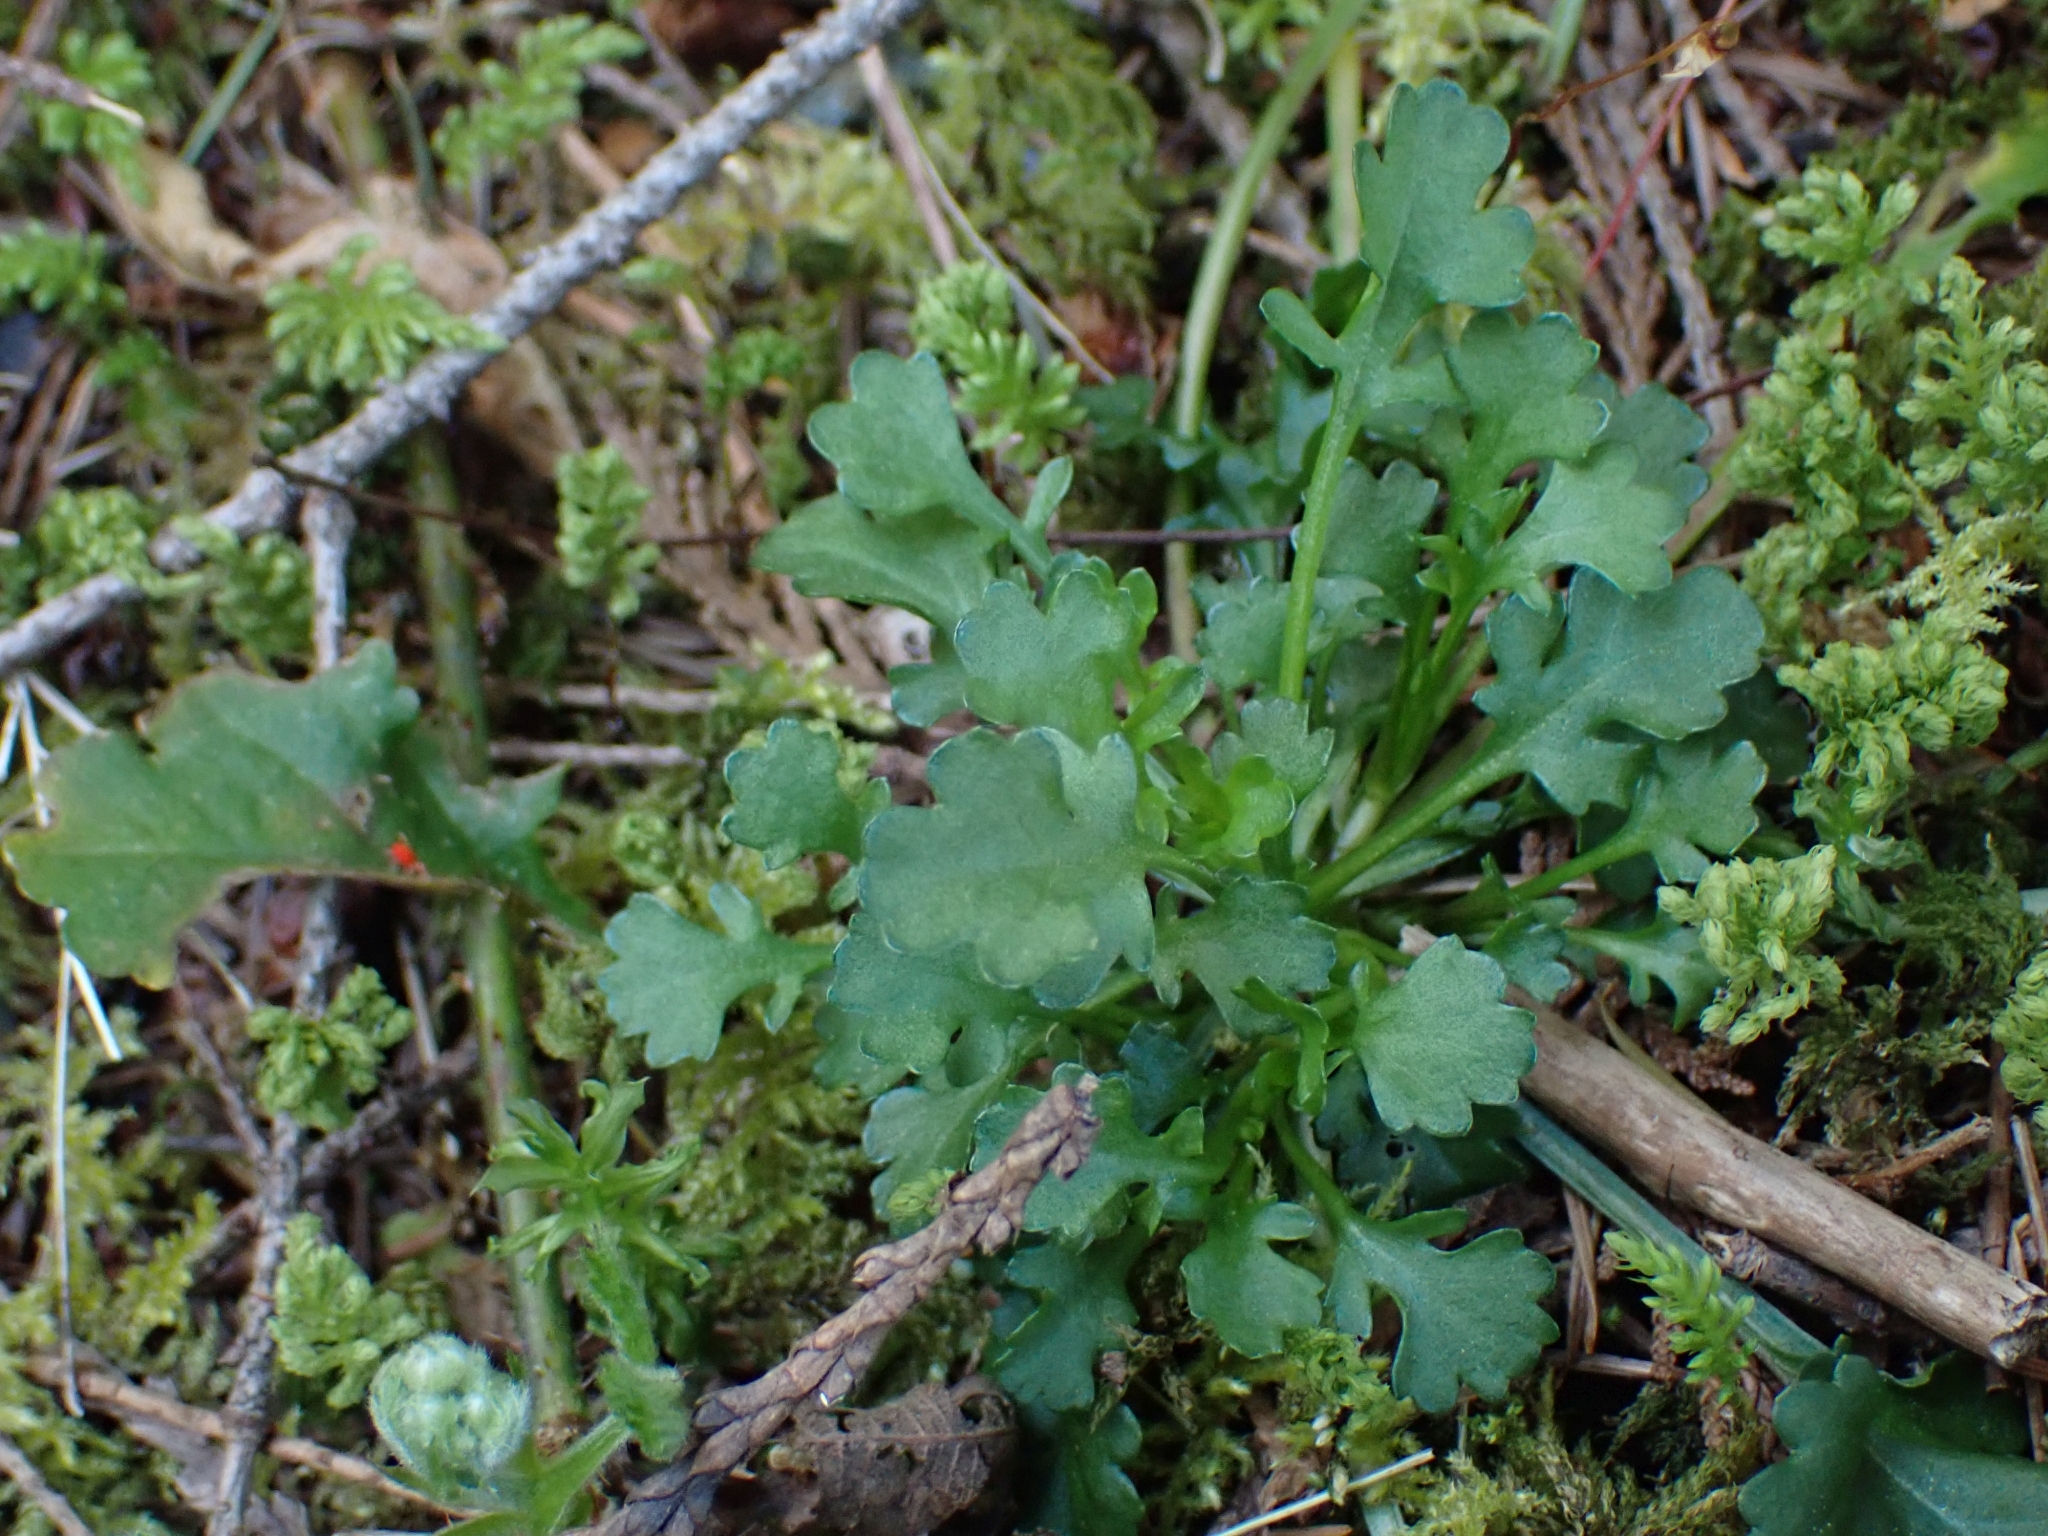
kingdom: Plantae
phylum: Tracheophyta
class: Magnoliopsida
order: Asterales
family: Asteraceae
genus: Leucanthemum
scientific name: Leucanthemum vulgare
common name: Oxeye daisy
